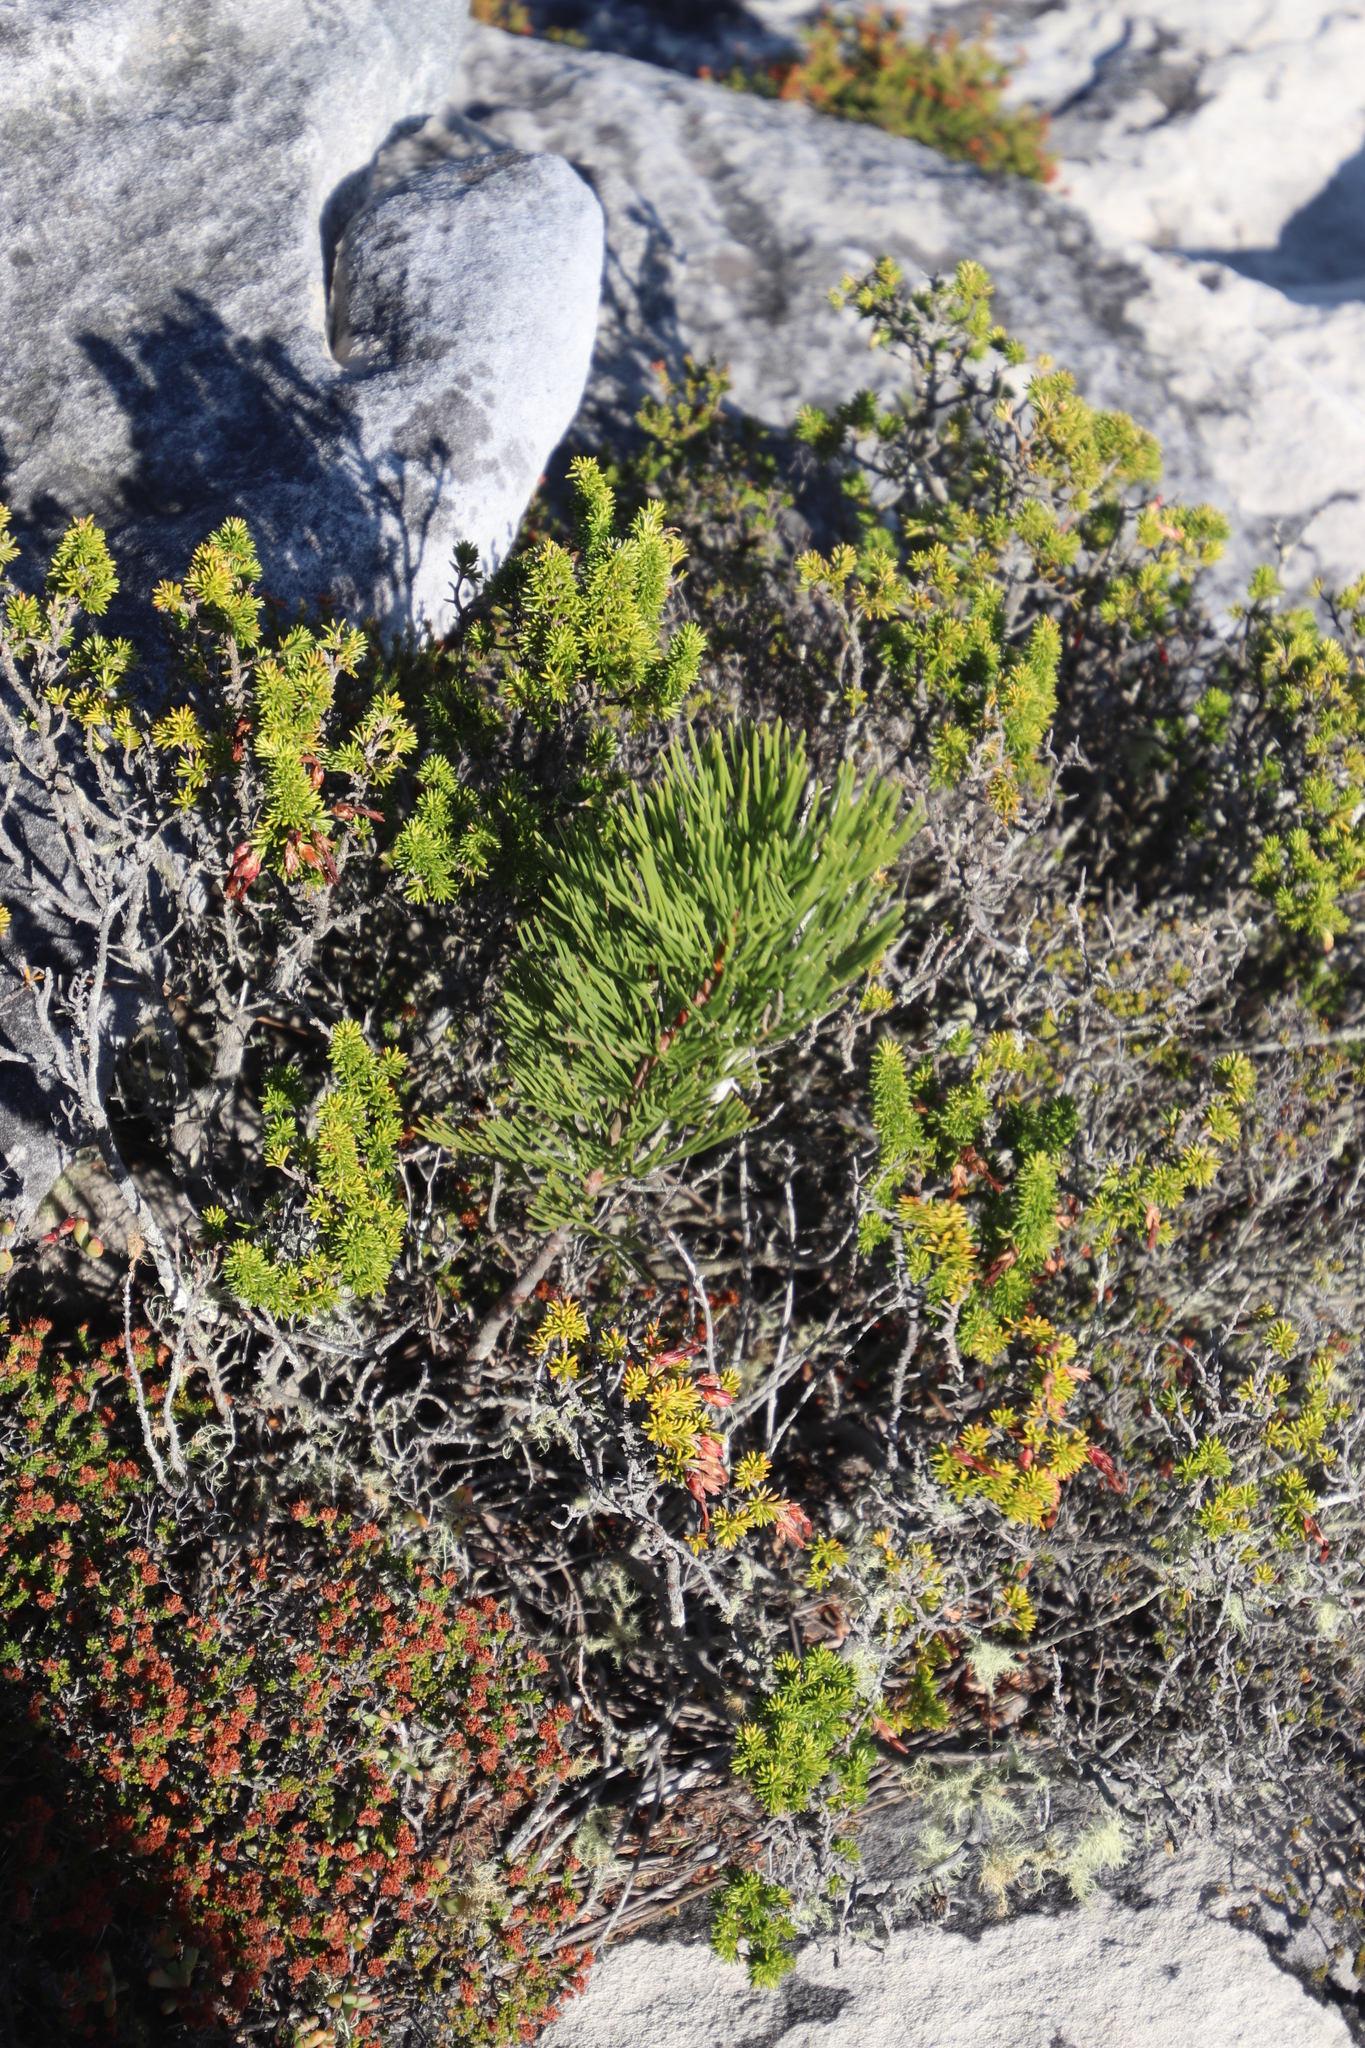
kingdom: Plantae
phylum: Tracheophyta
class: Magnoliopsida
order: Proteales
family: Proteaceae
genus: Hakea
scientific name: Hakea drupacea
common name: Sweet hakea
